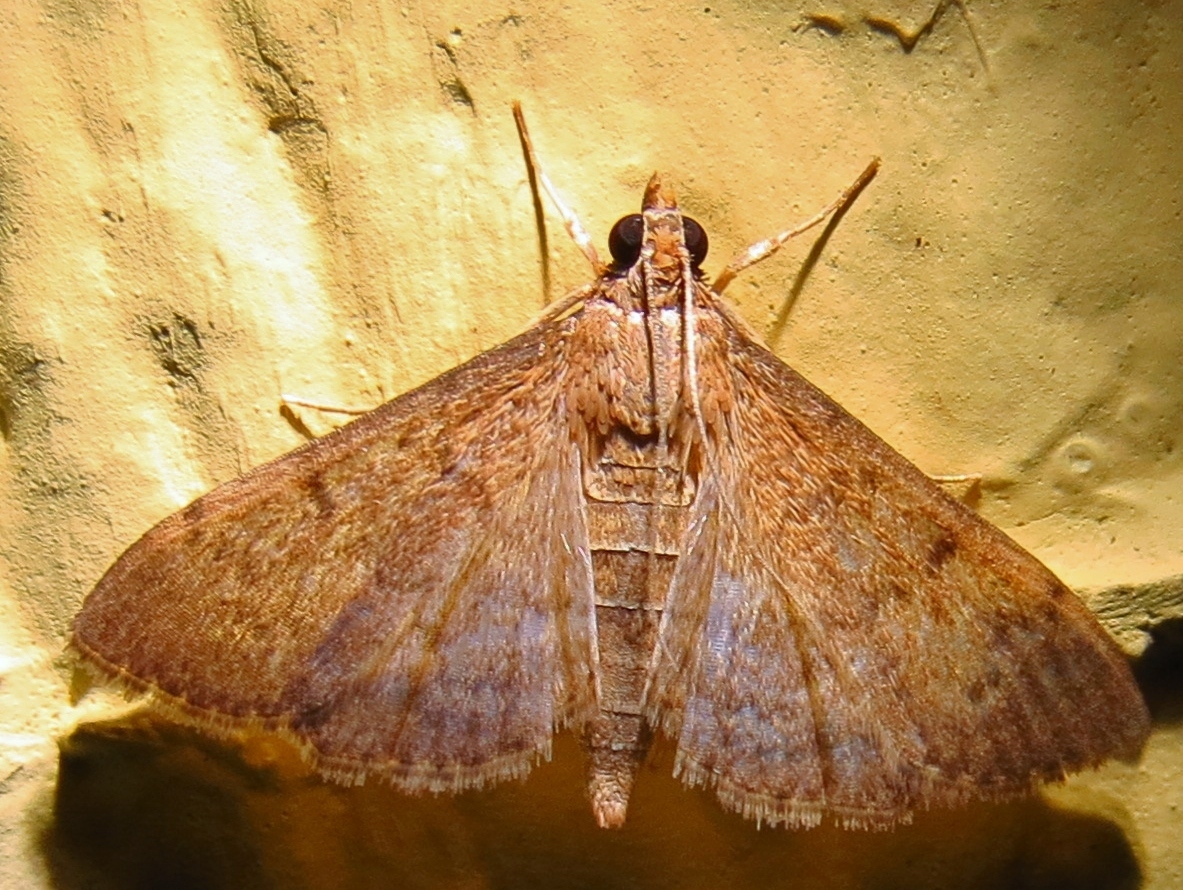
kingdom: Animalia
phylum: Arthropoda
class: Insecta
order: Lepidoptera
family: Crambidae
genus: Herpetogramma
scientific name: Herpetogramma phaeopteralis
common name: Dusky herpetogramma moth
